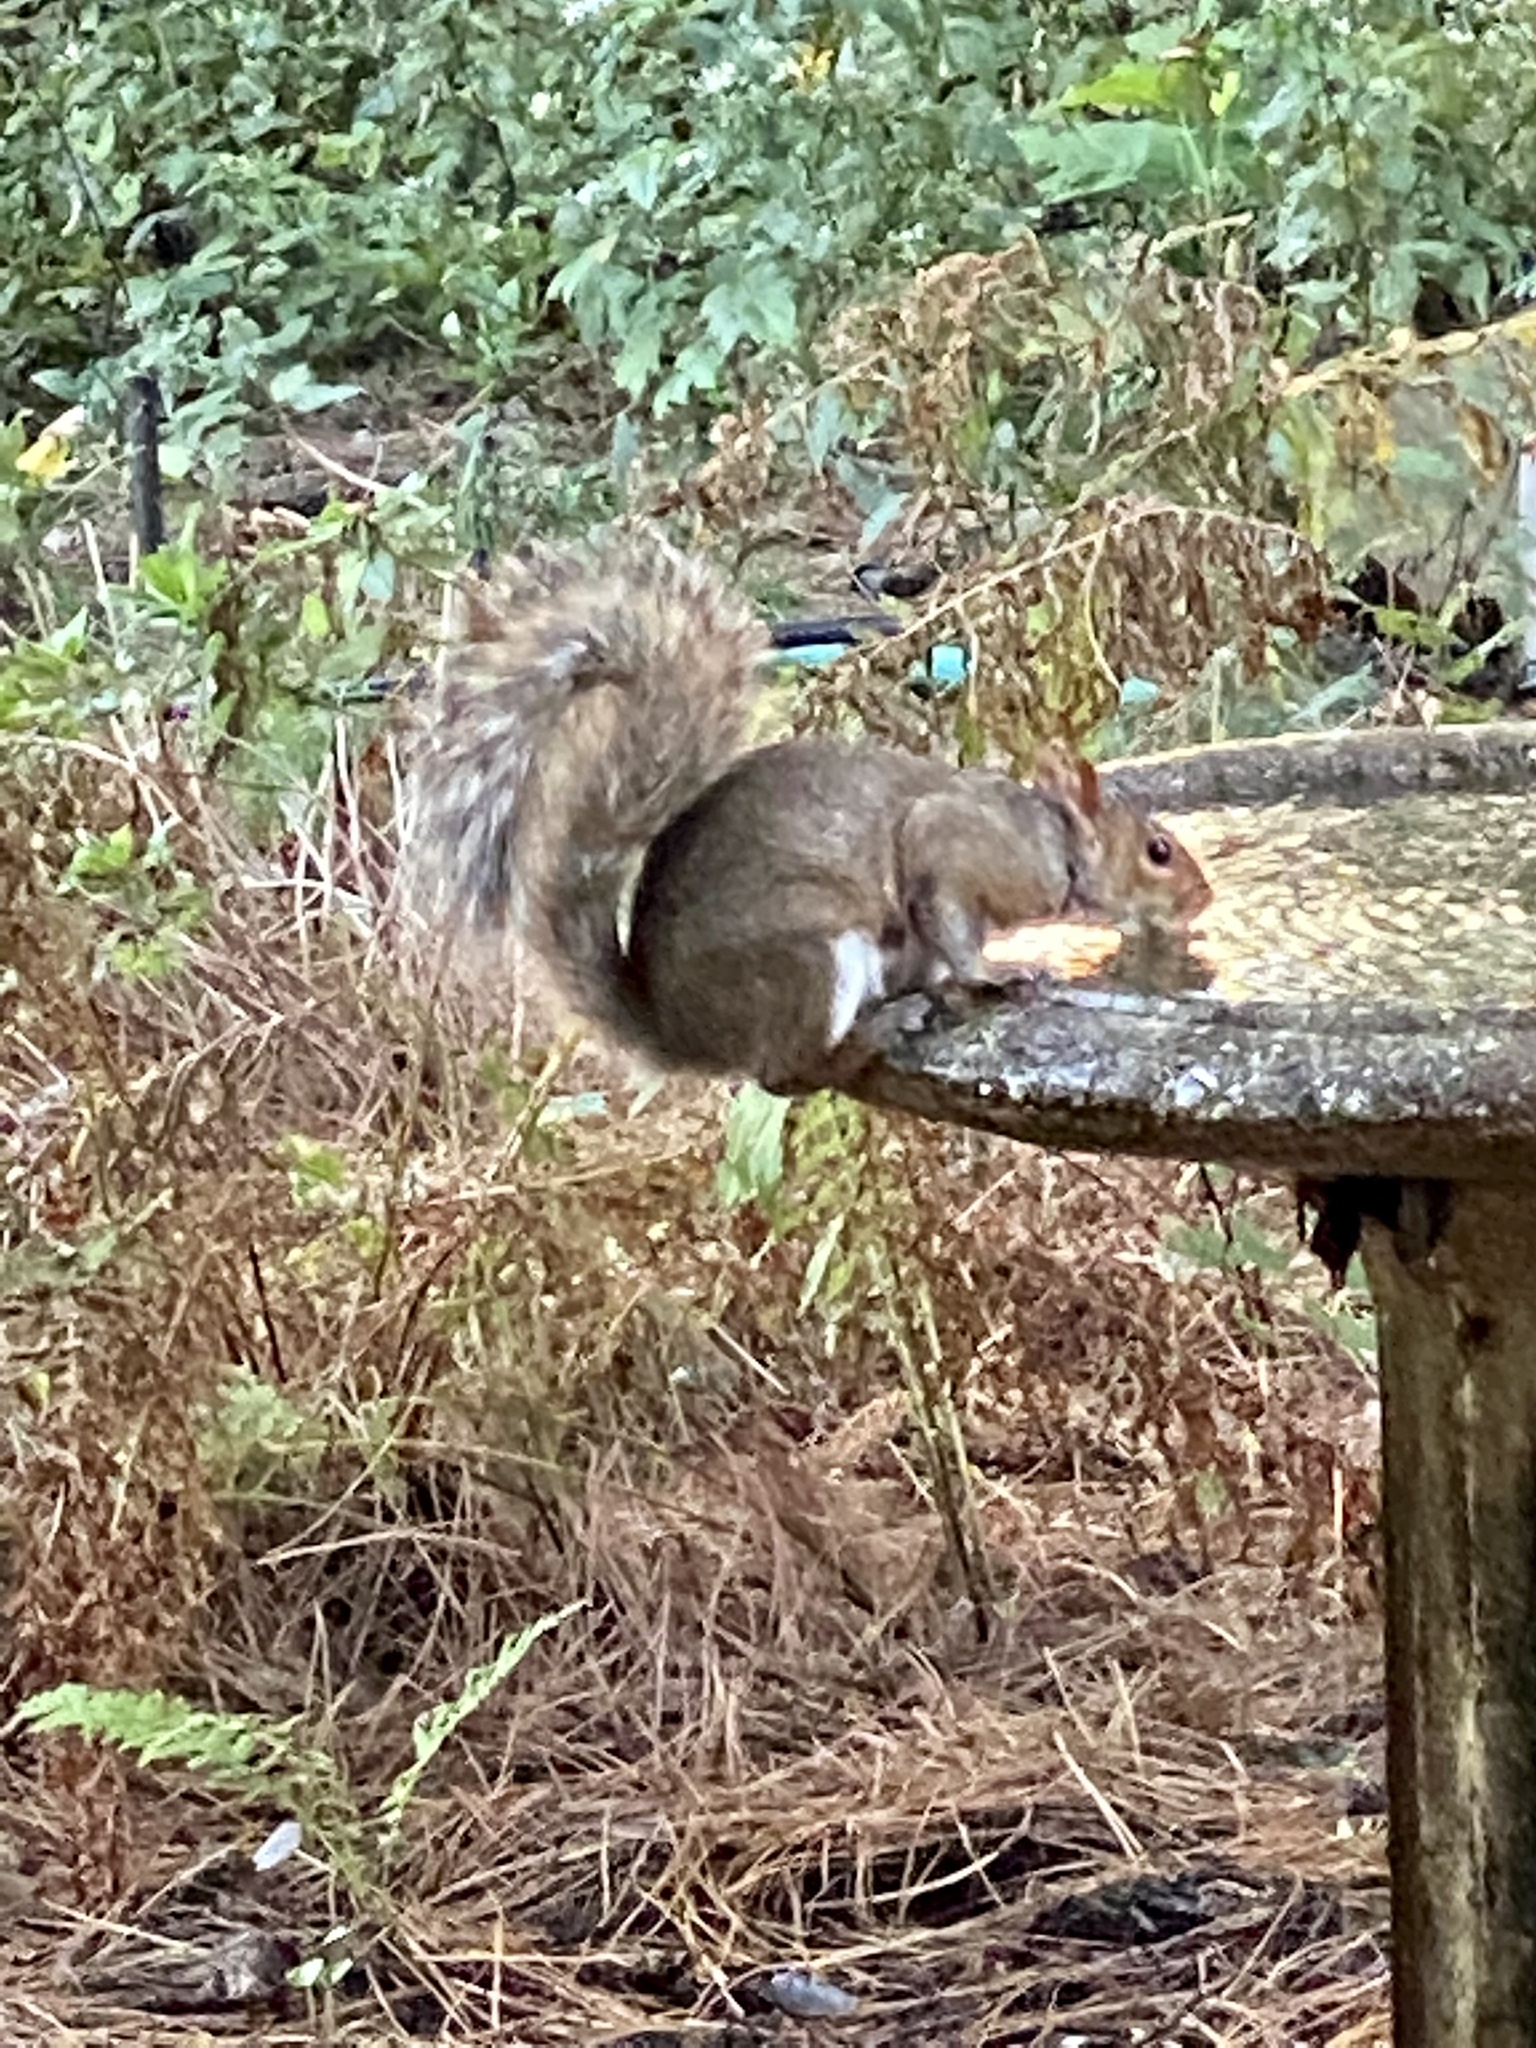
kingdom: Animalia
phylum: Chordata
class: Mammalia
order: Rodentia
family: Sciuridae
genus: Sciurus
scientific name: Sciurus carolinensis
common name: Eastern gray squirrel
